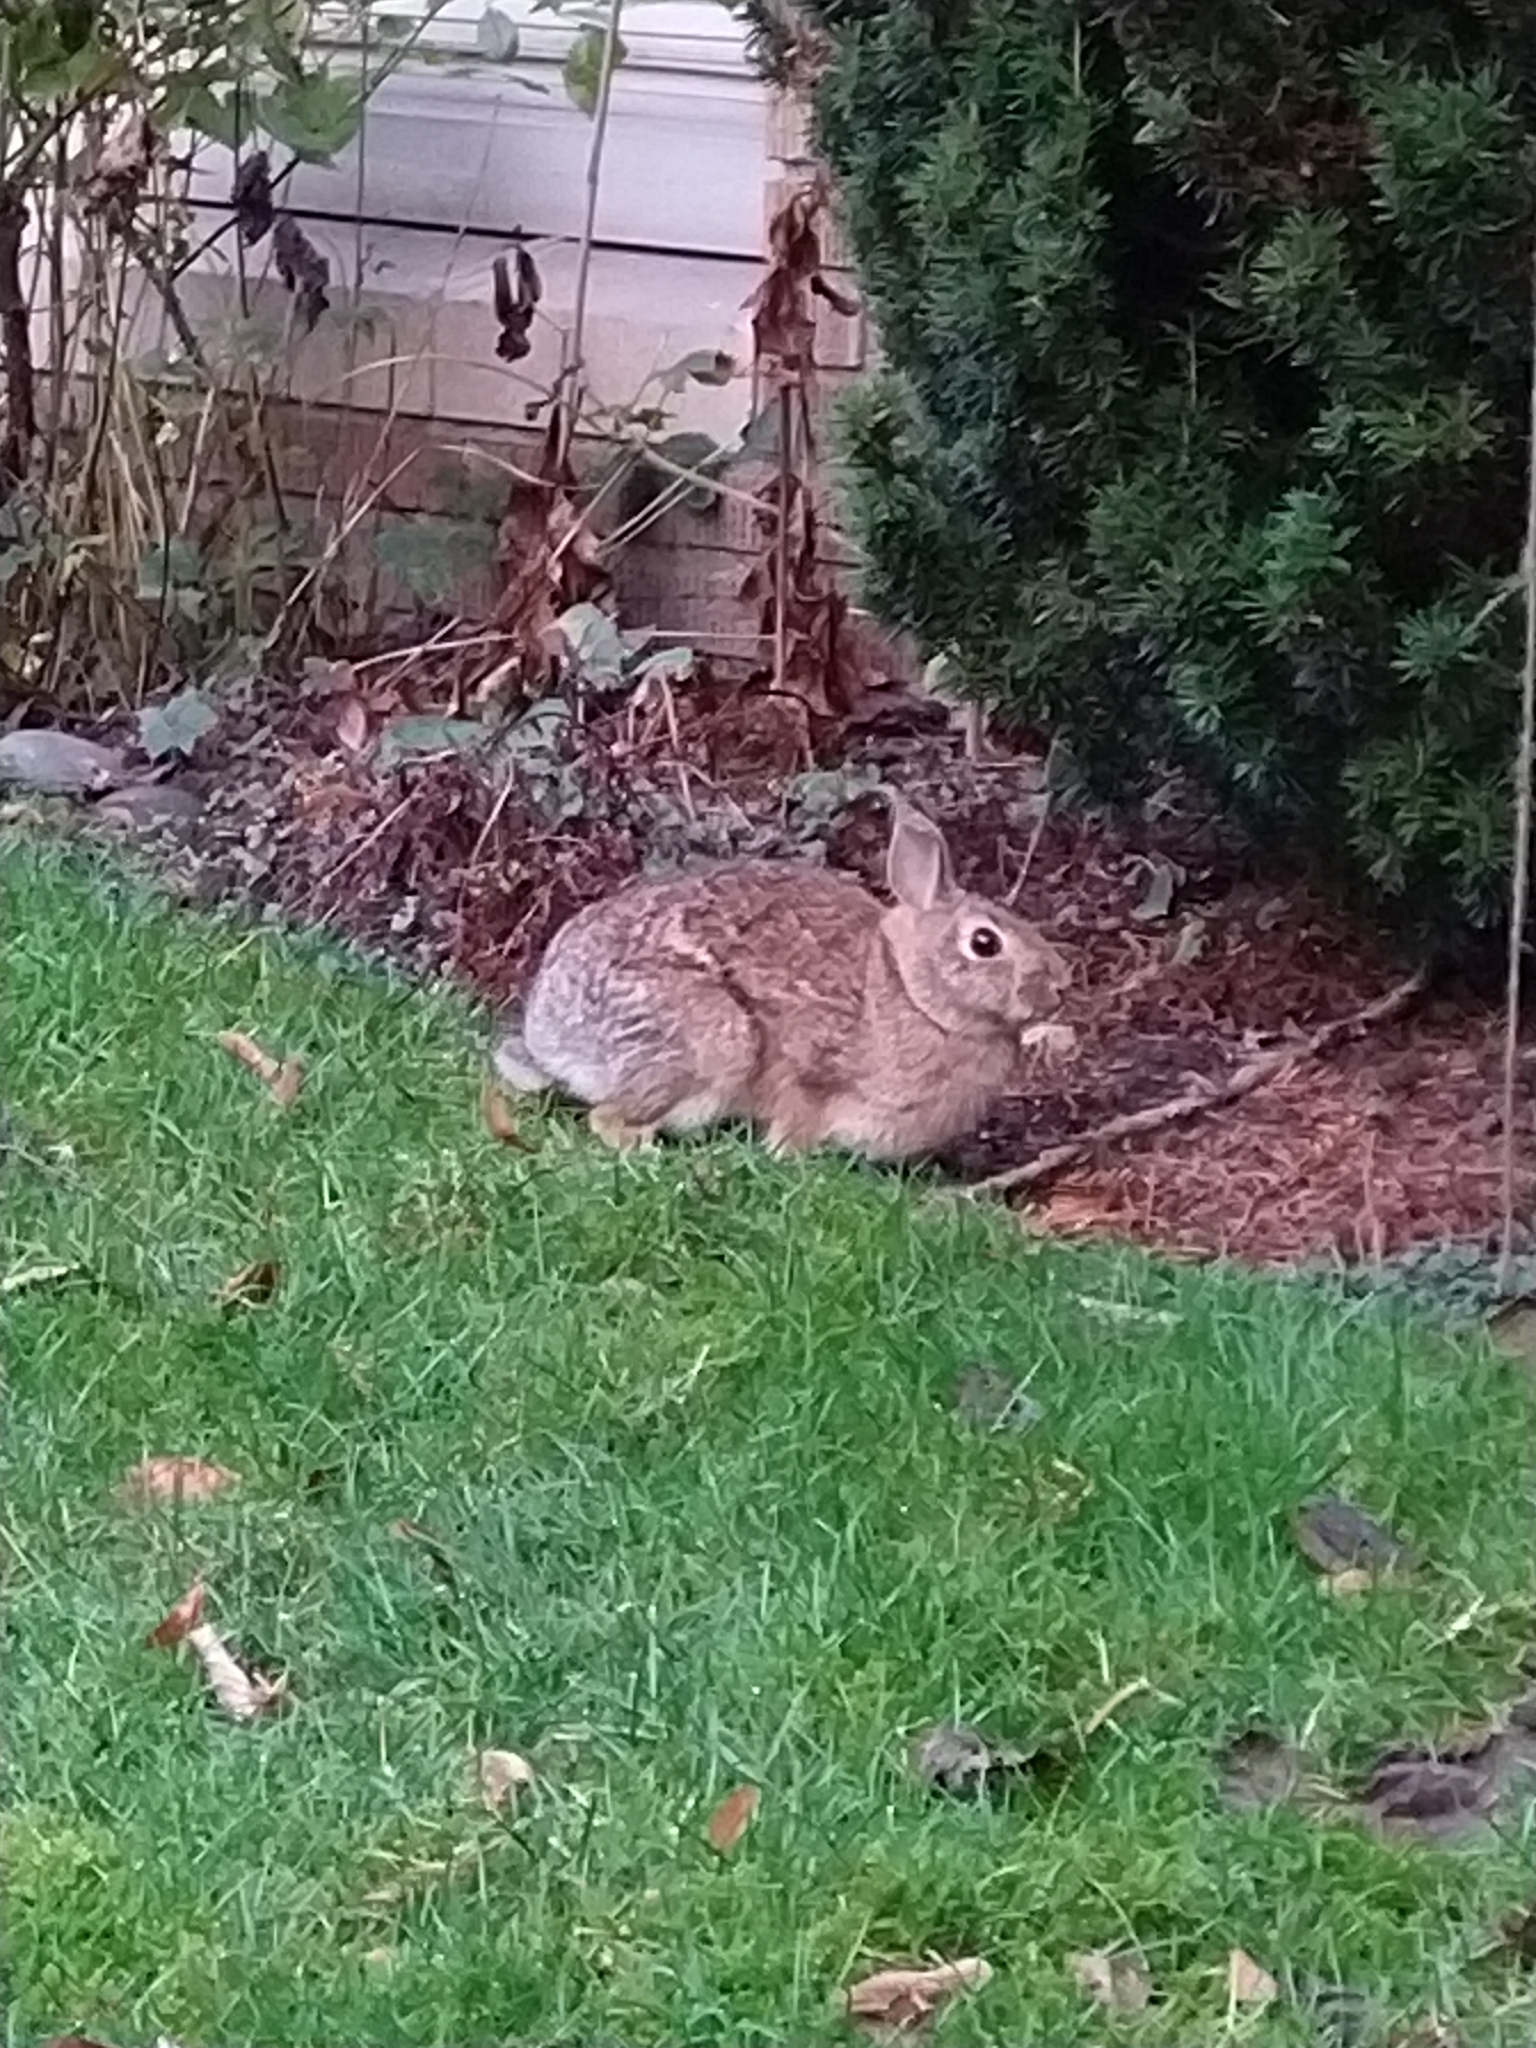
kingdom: Animalia
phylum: Chordata
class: Mammalia
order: Lagomorpha
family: Leporidae
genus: Sylvilagus
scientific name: Sylvilagus floridanus
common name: Eastern cottontail
